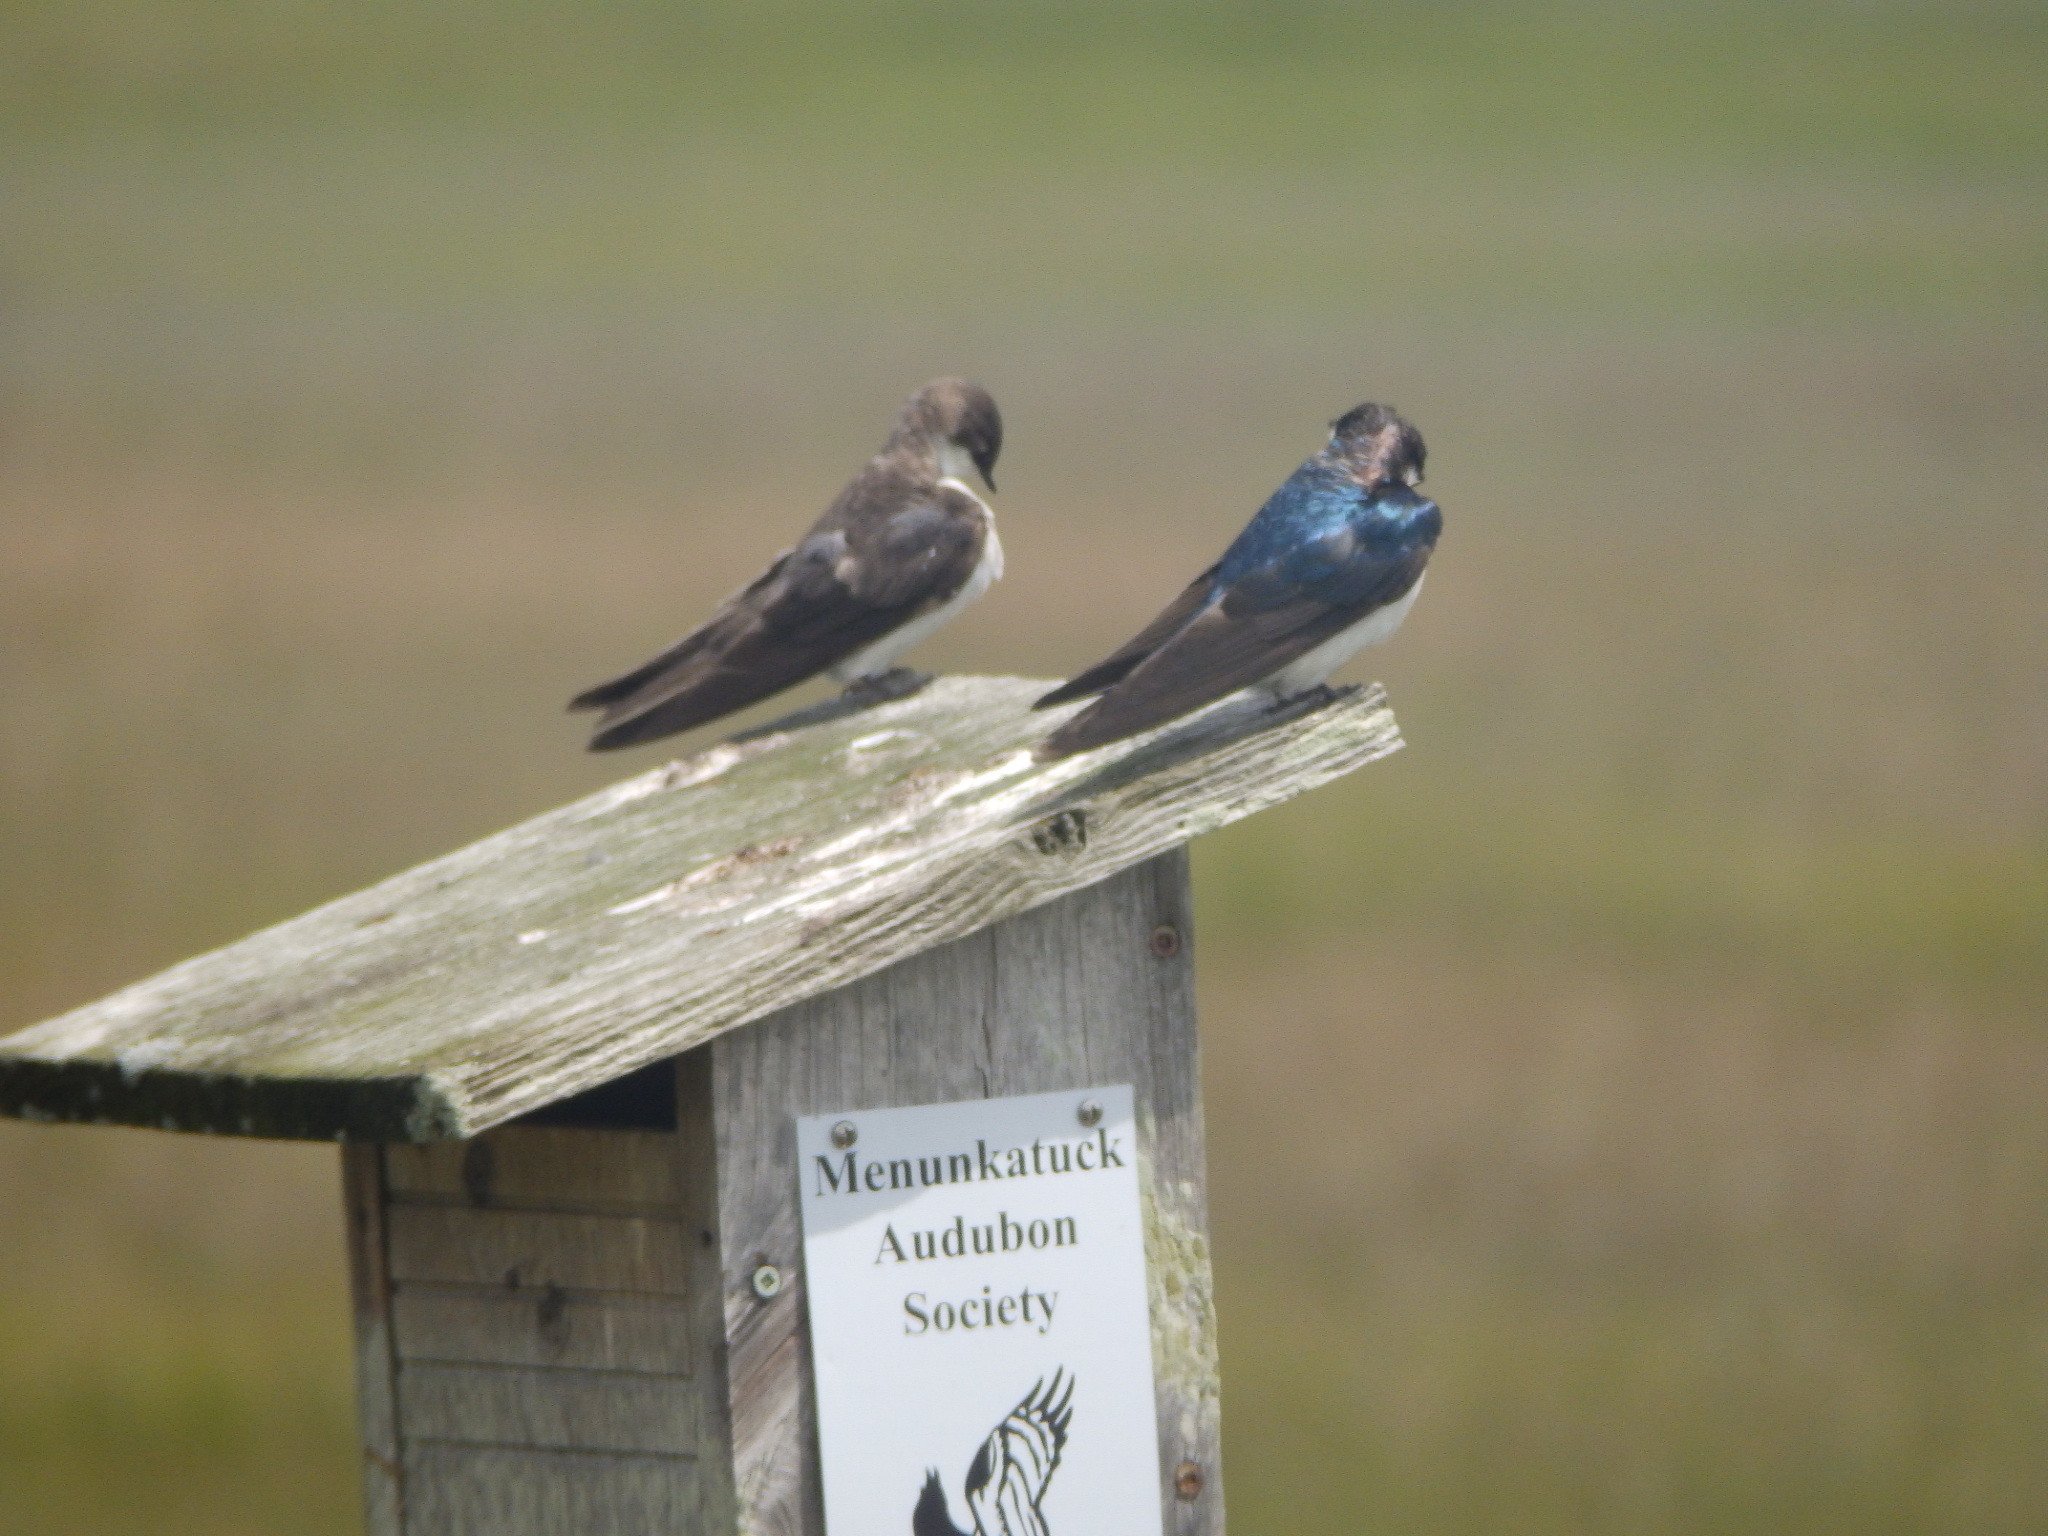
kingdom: Animalia
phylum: Chordata
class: Aves
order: Passeriformes
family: Hirundinidae
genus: Tachycineta
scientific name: Tachycineta bicolor
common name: Tree swallow
